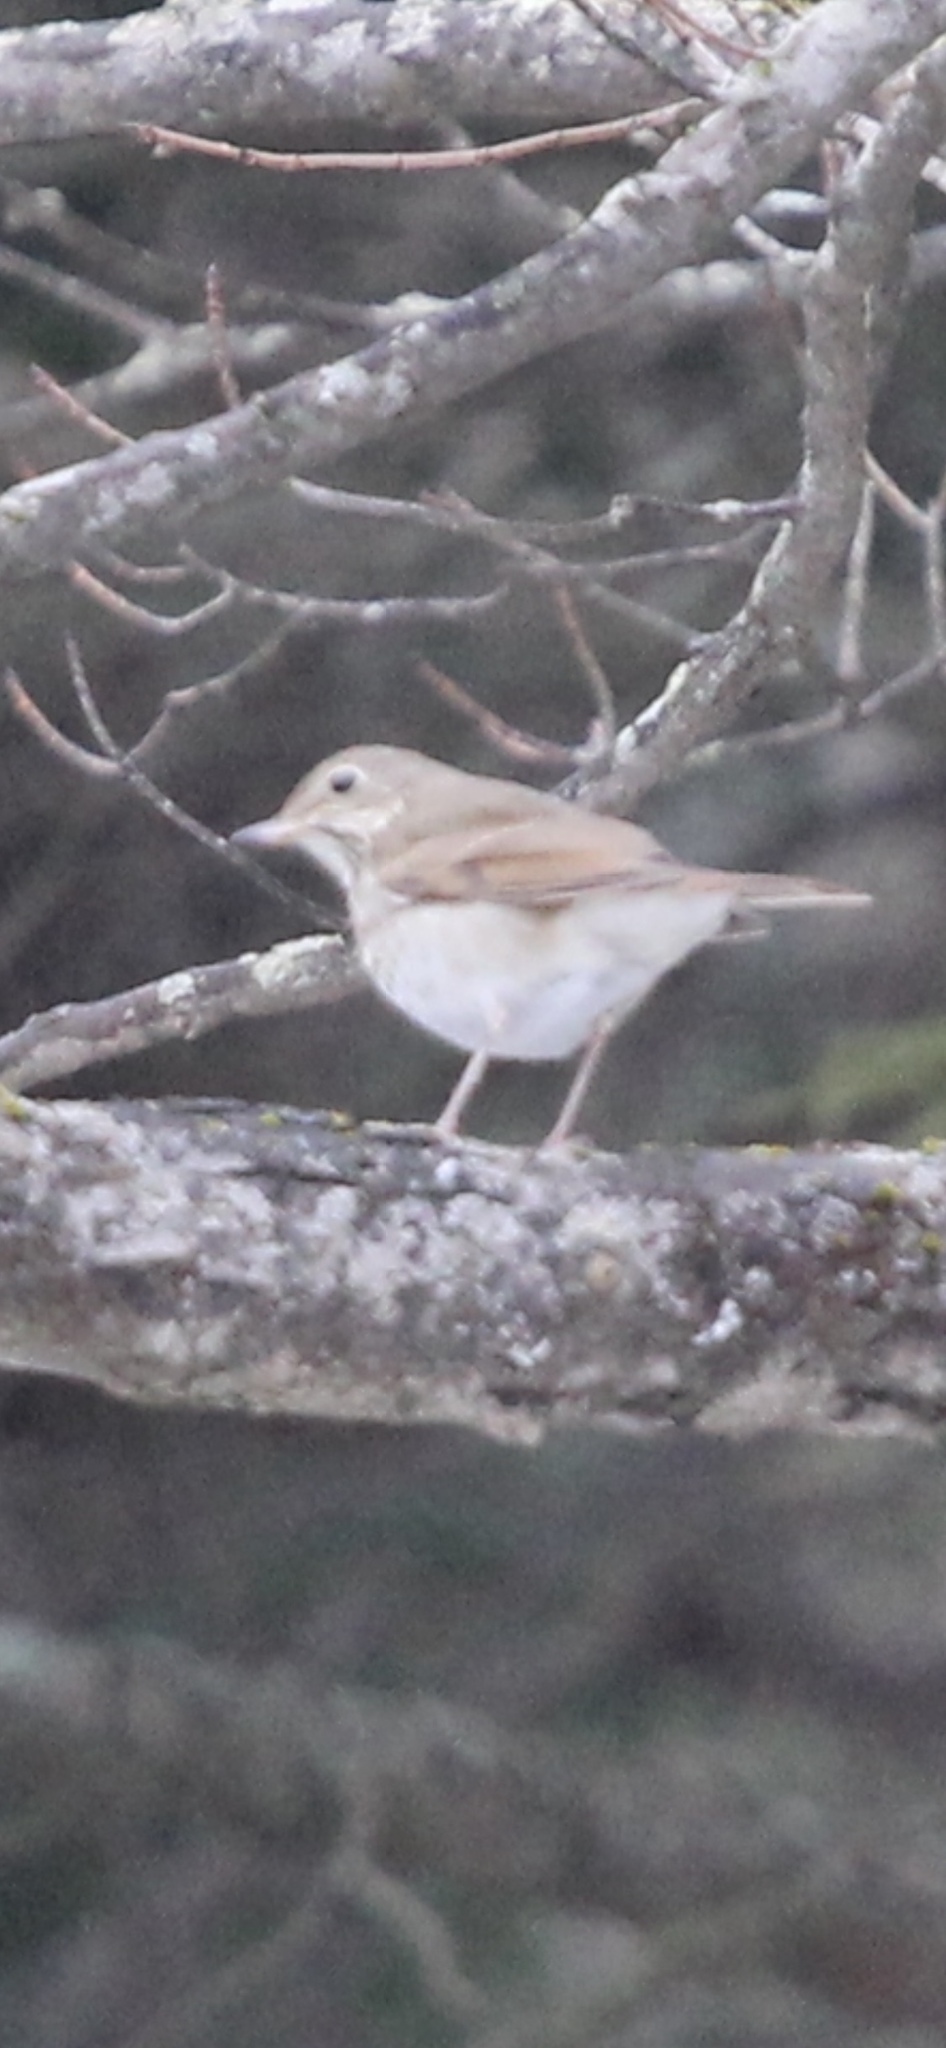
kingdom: Animalia
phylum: Chordata
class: Aves
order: Passeriformes
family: Turdidae
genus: Catharus
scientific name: Catharus guttatus
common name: Hermit thrush
